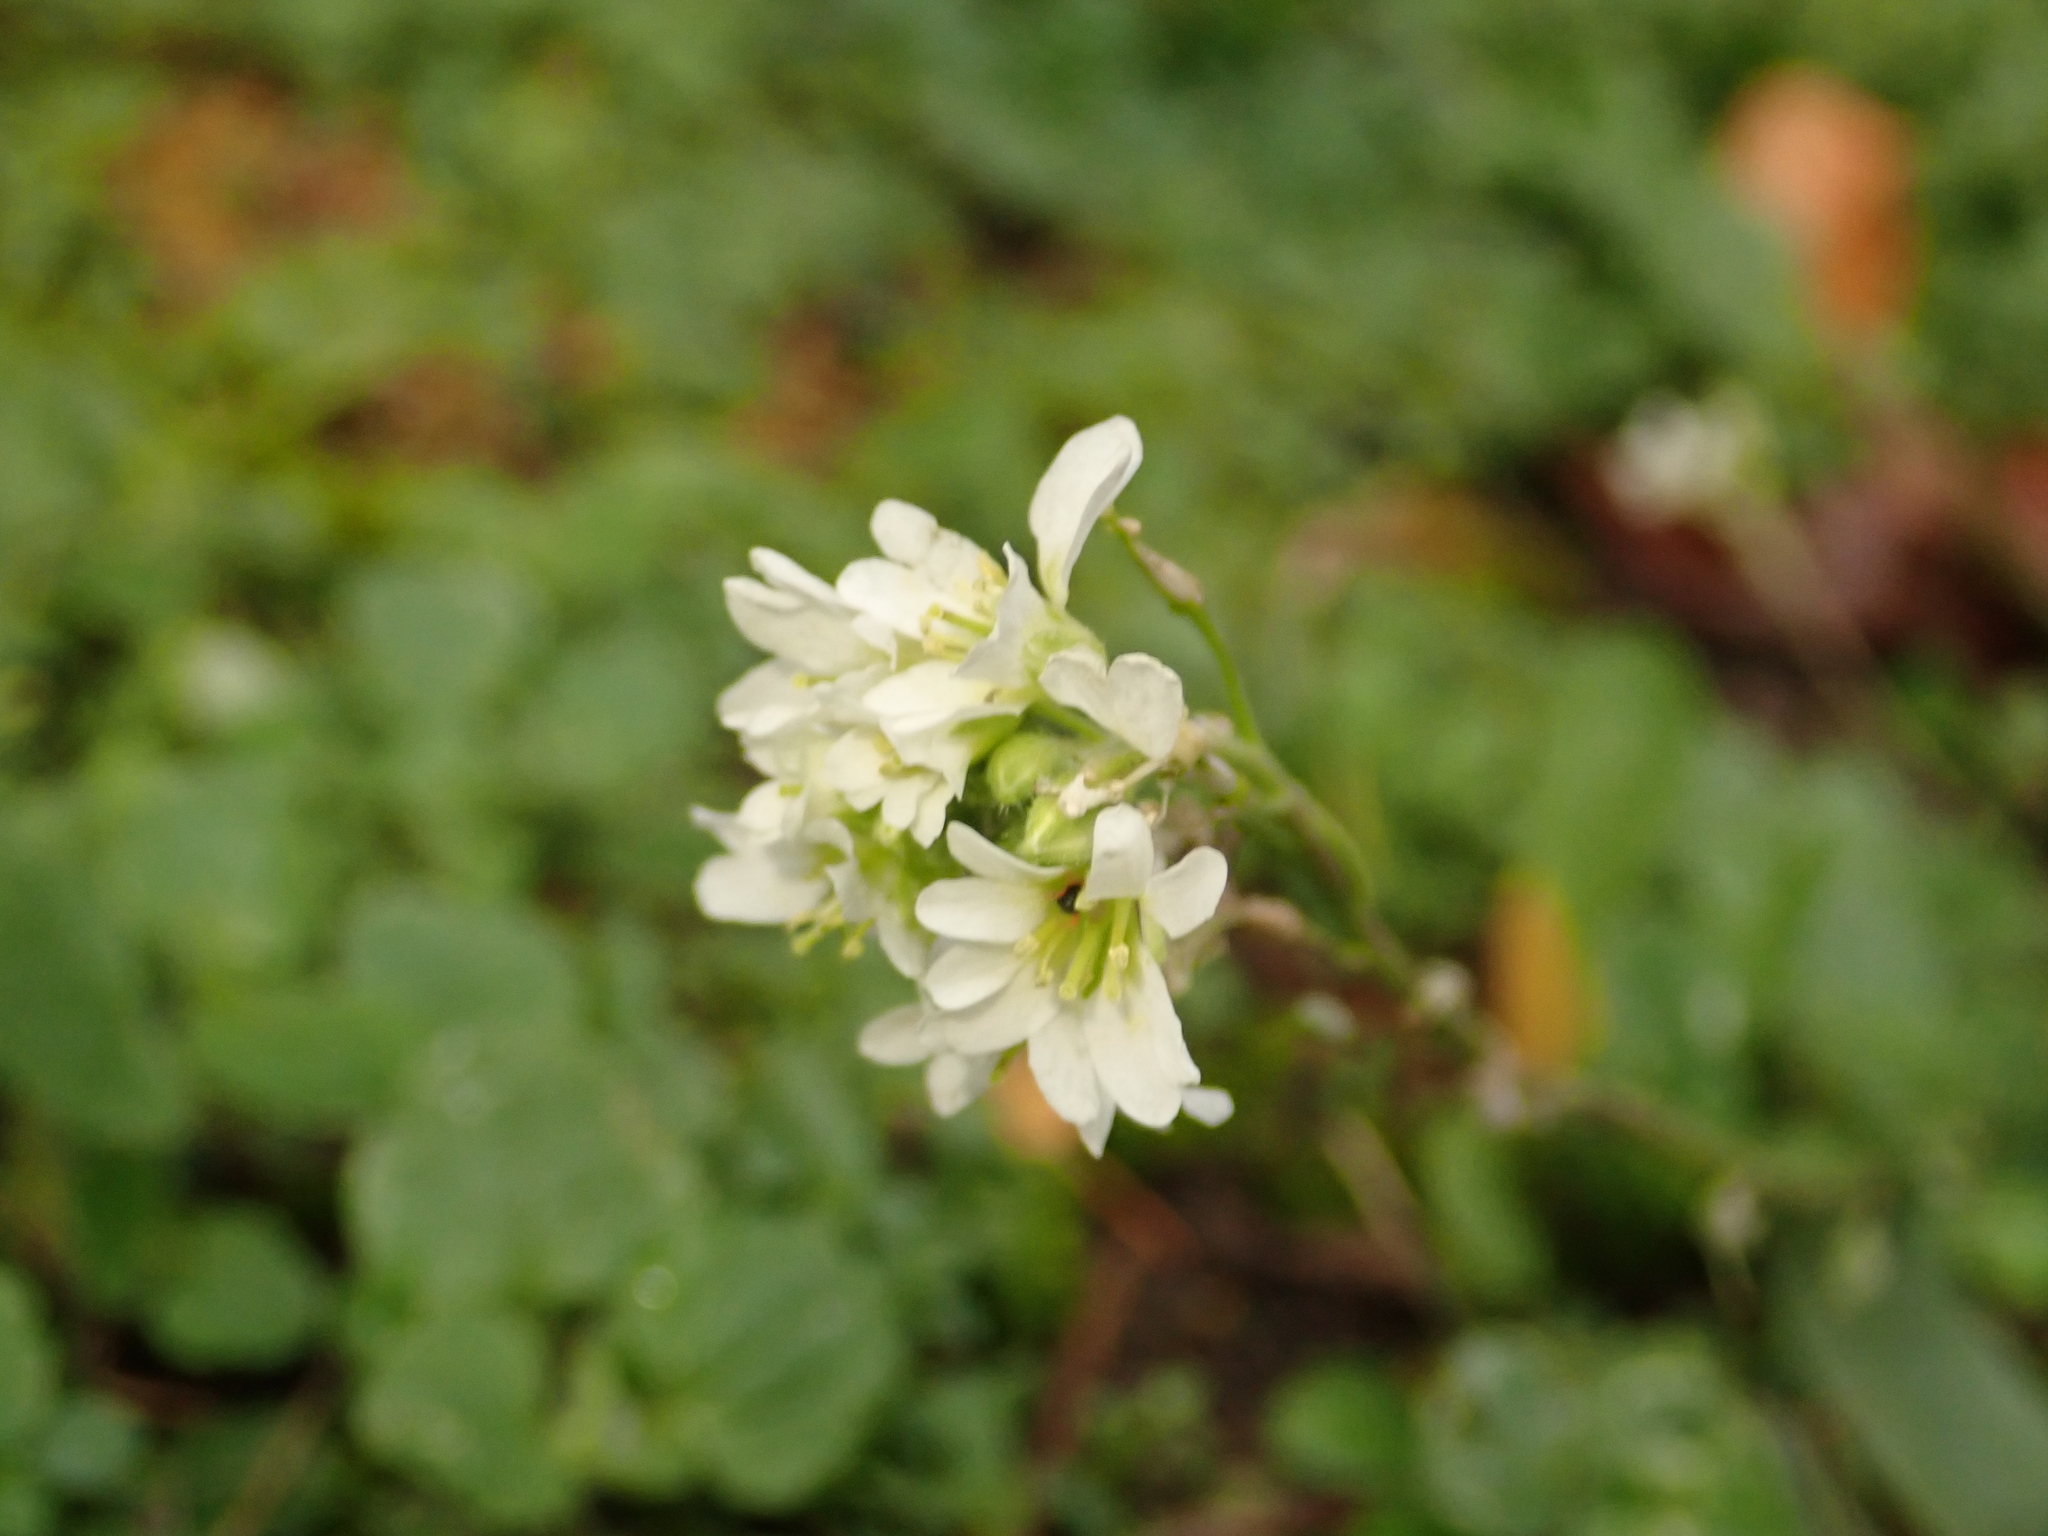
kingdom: Plantae
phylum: Tracheophyta
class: Magnoliopsida
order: Brassicales
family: Brassicaceae
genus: Berteroa
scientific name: Berteroa incana
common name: Hoary alison
